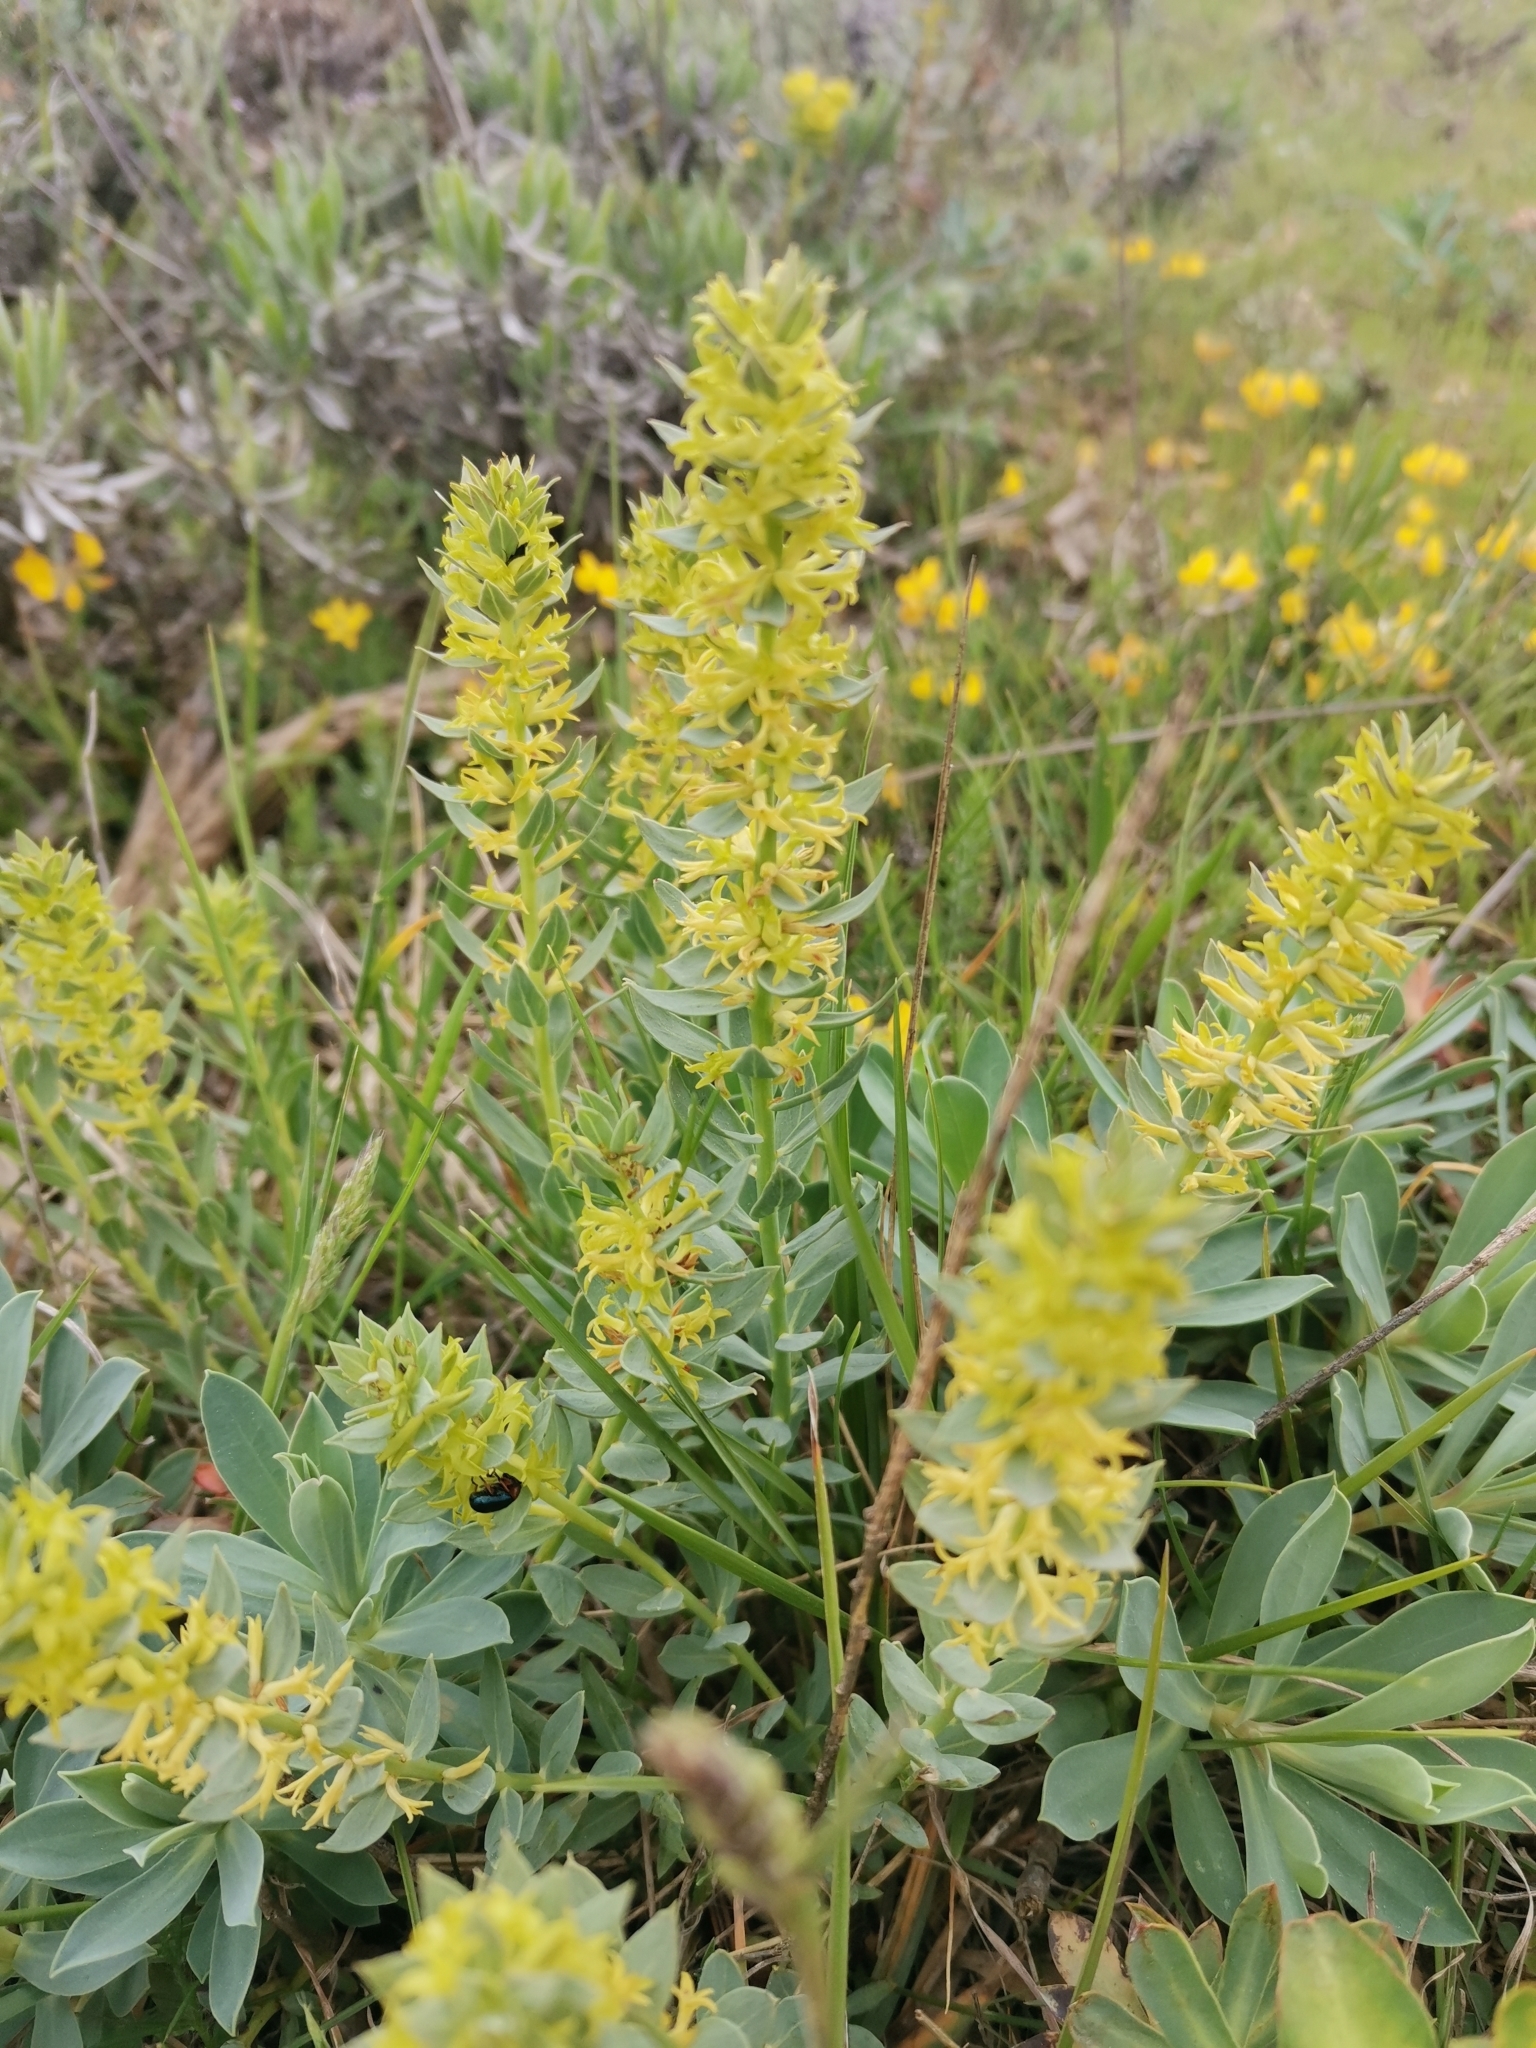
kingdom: Plantae
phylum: Tracheophyta
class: Magnoliopsida
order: Malvales
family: Thymelaeaceae
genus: Thymelaea
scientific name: Thymelaea sanamunda
